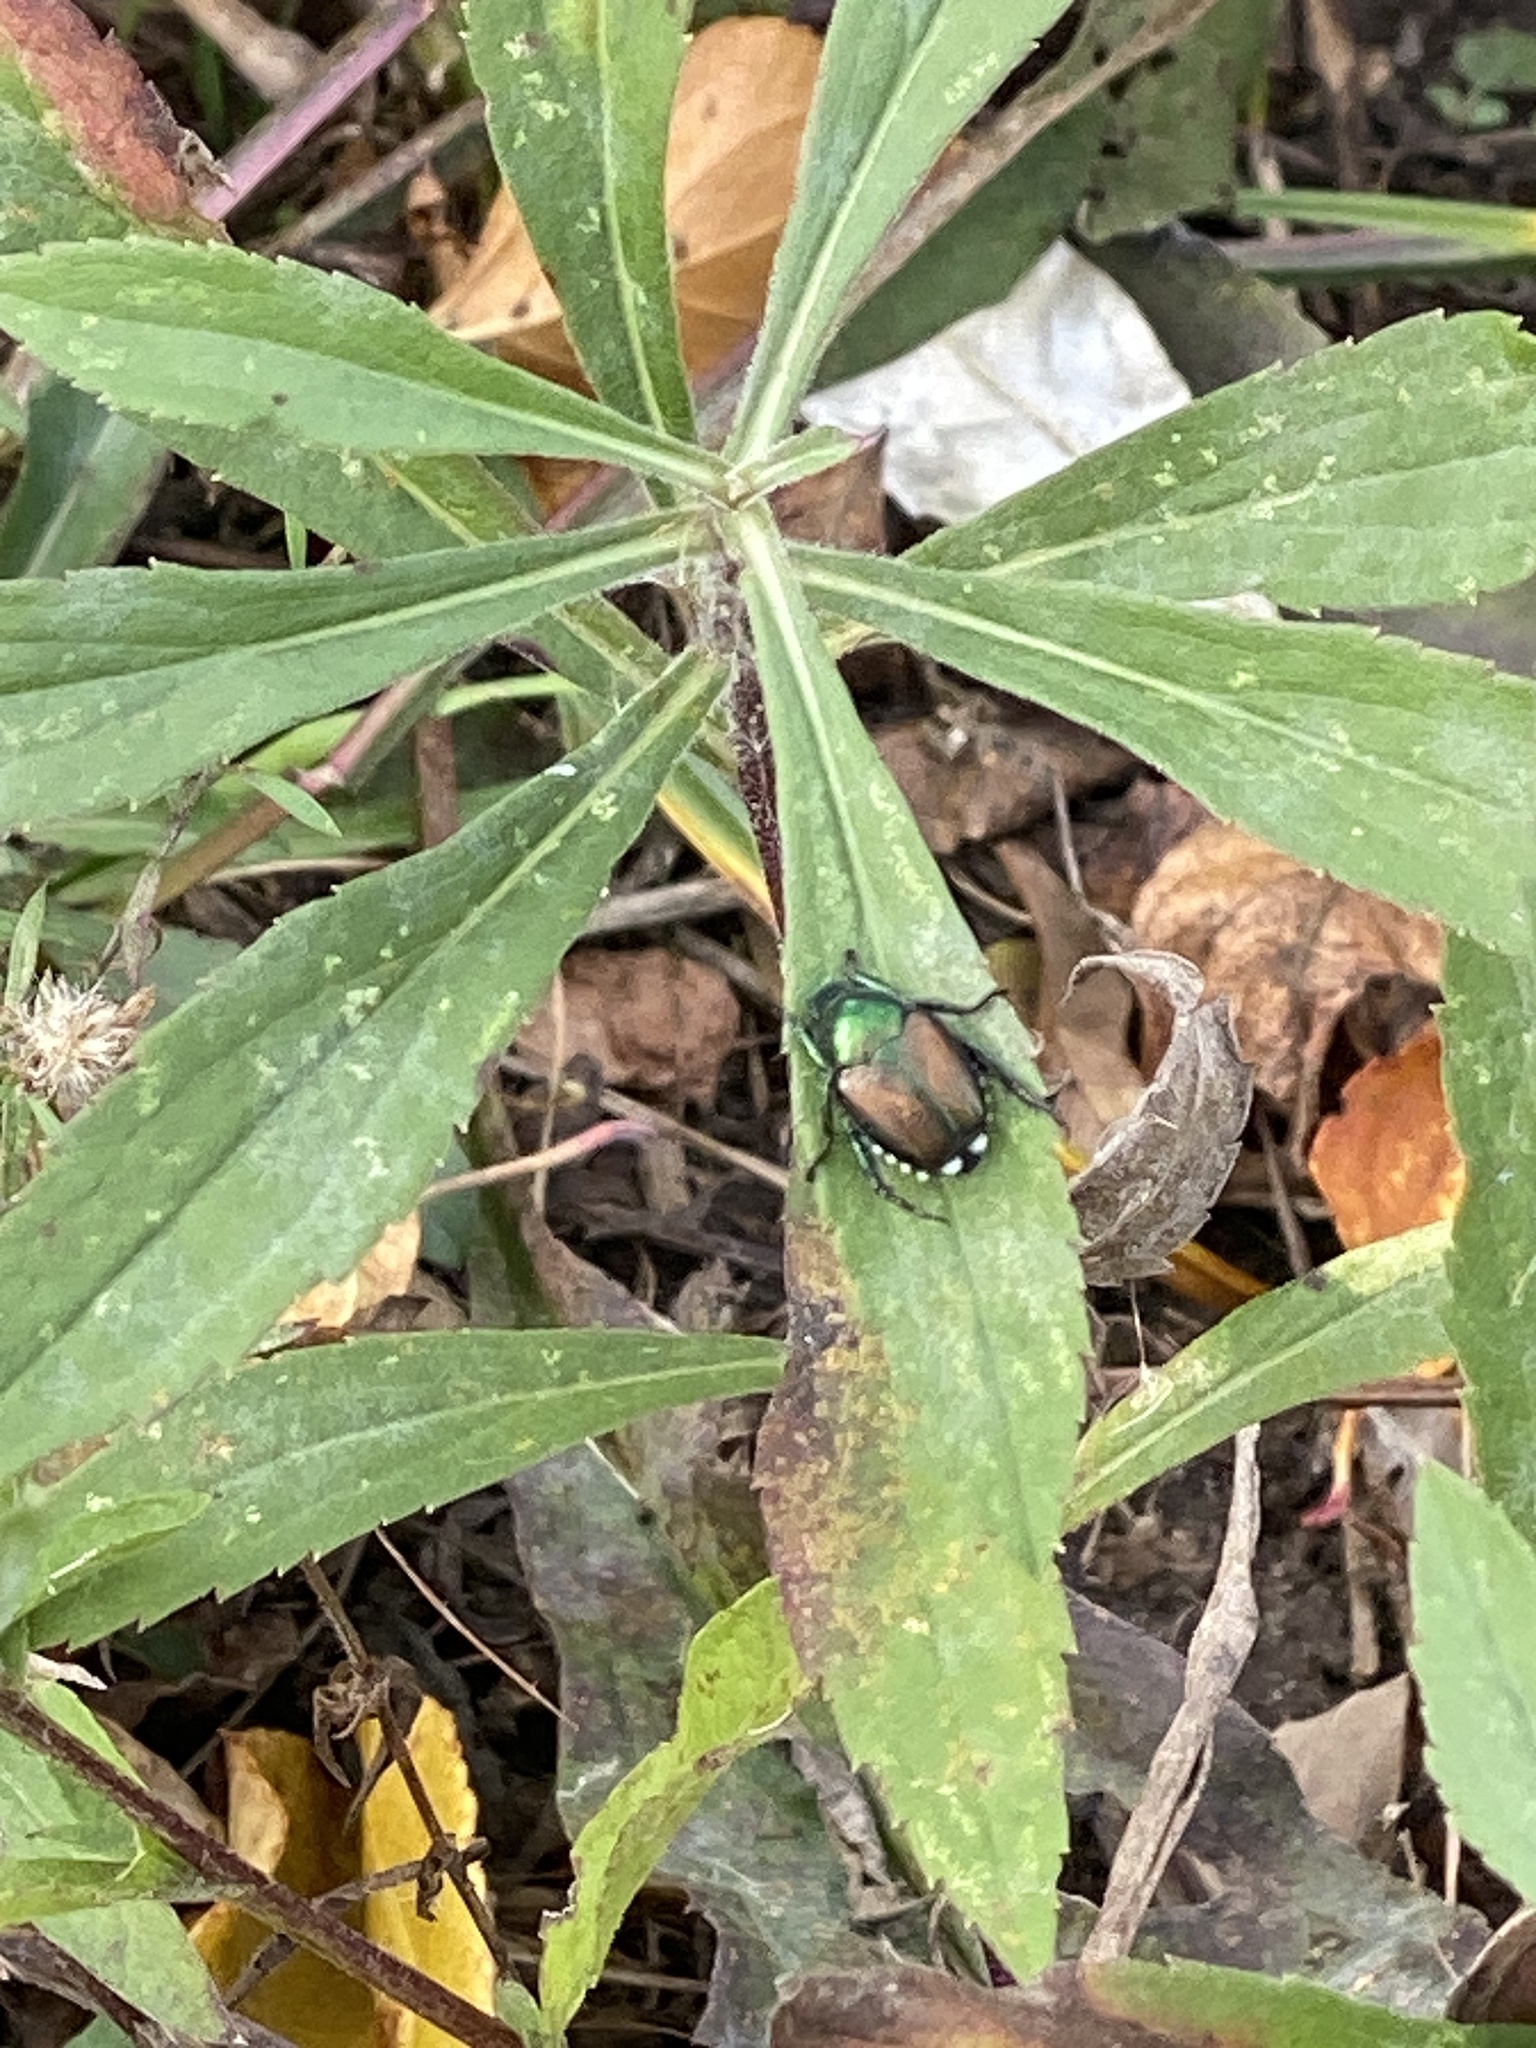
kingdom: Animalia
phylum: Arthropoda
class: Insecta
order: Coleoptera
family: Scarabaeidae
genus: Popillia
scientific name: Popillia japonica
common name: Japanese beetle
